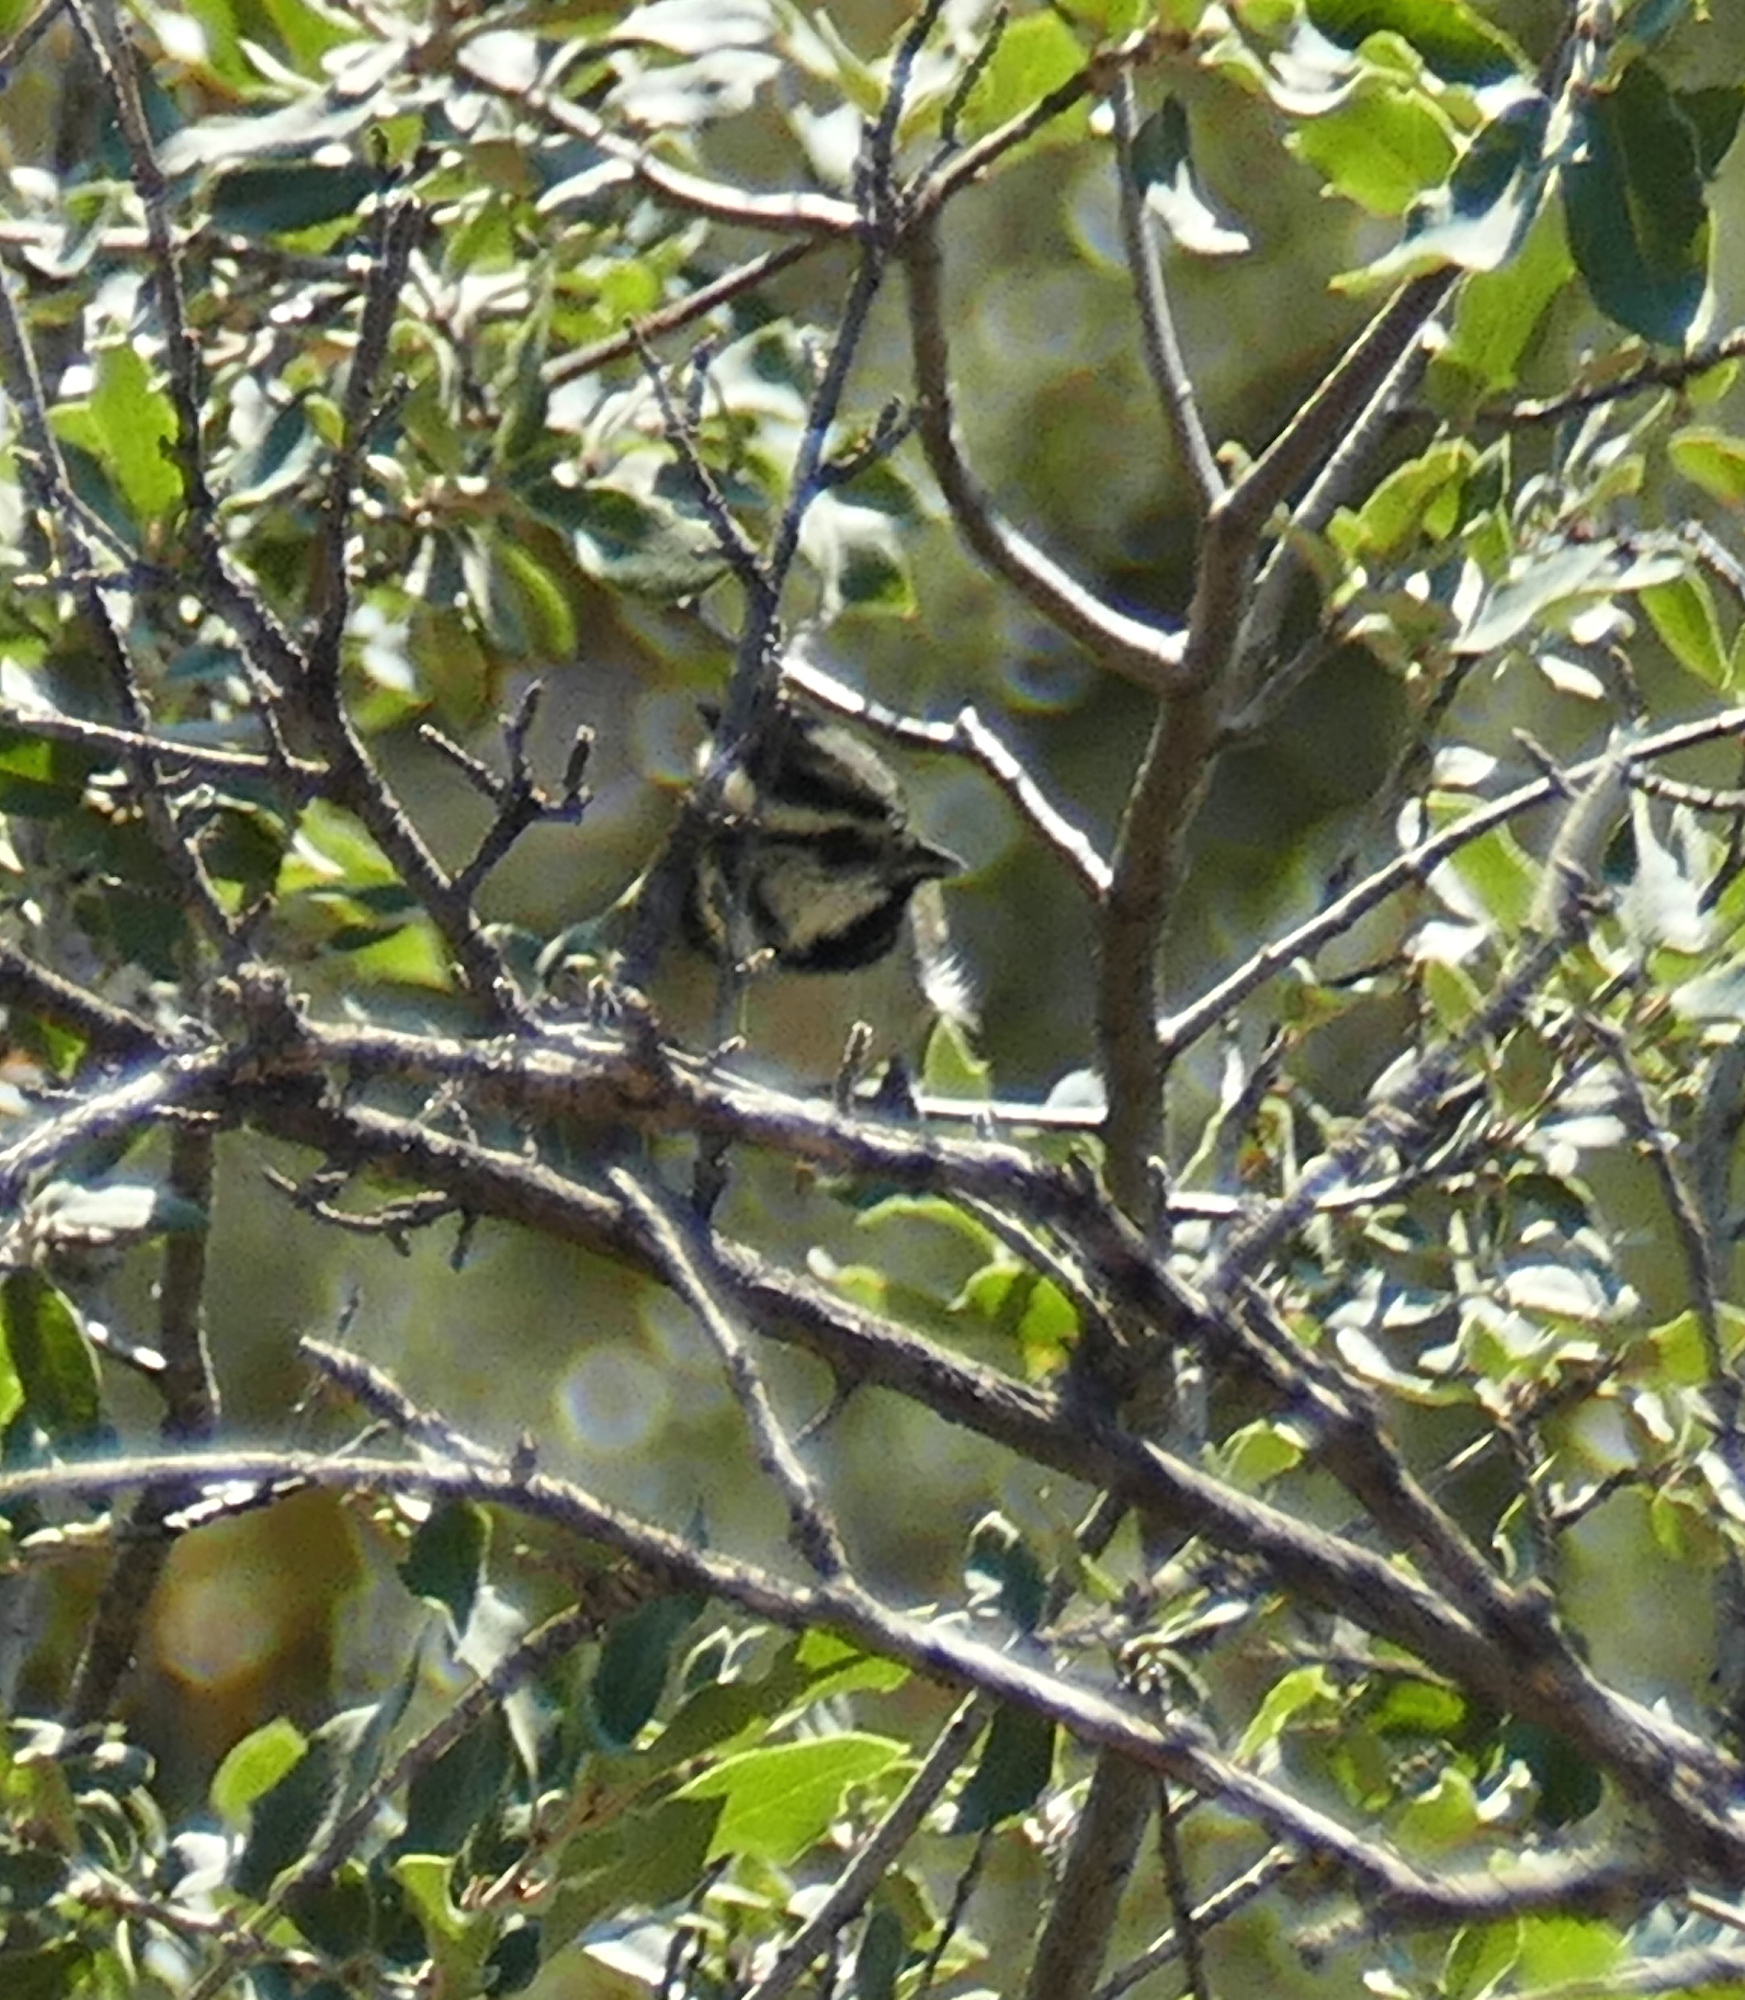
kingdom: Animalia
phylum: Chordata
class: Aves
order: Passeriformes
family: Paridae
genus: Baeolophus
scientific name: Baeolophus wollweberi
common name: Bridled titmouse
